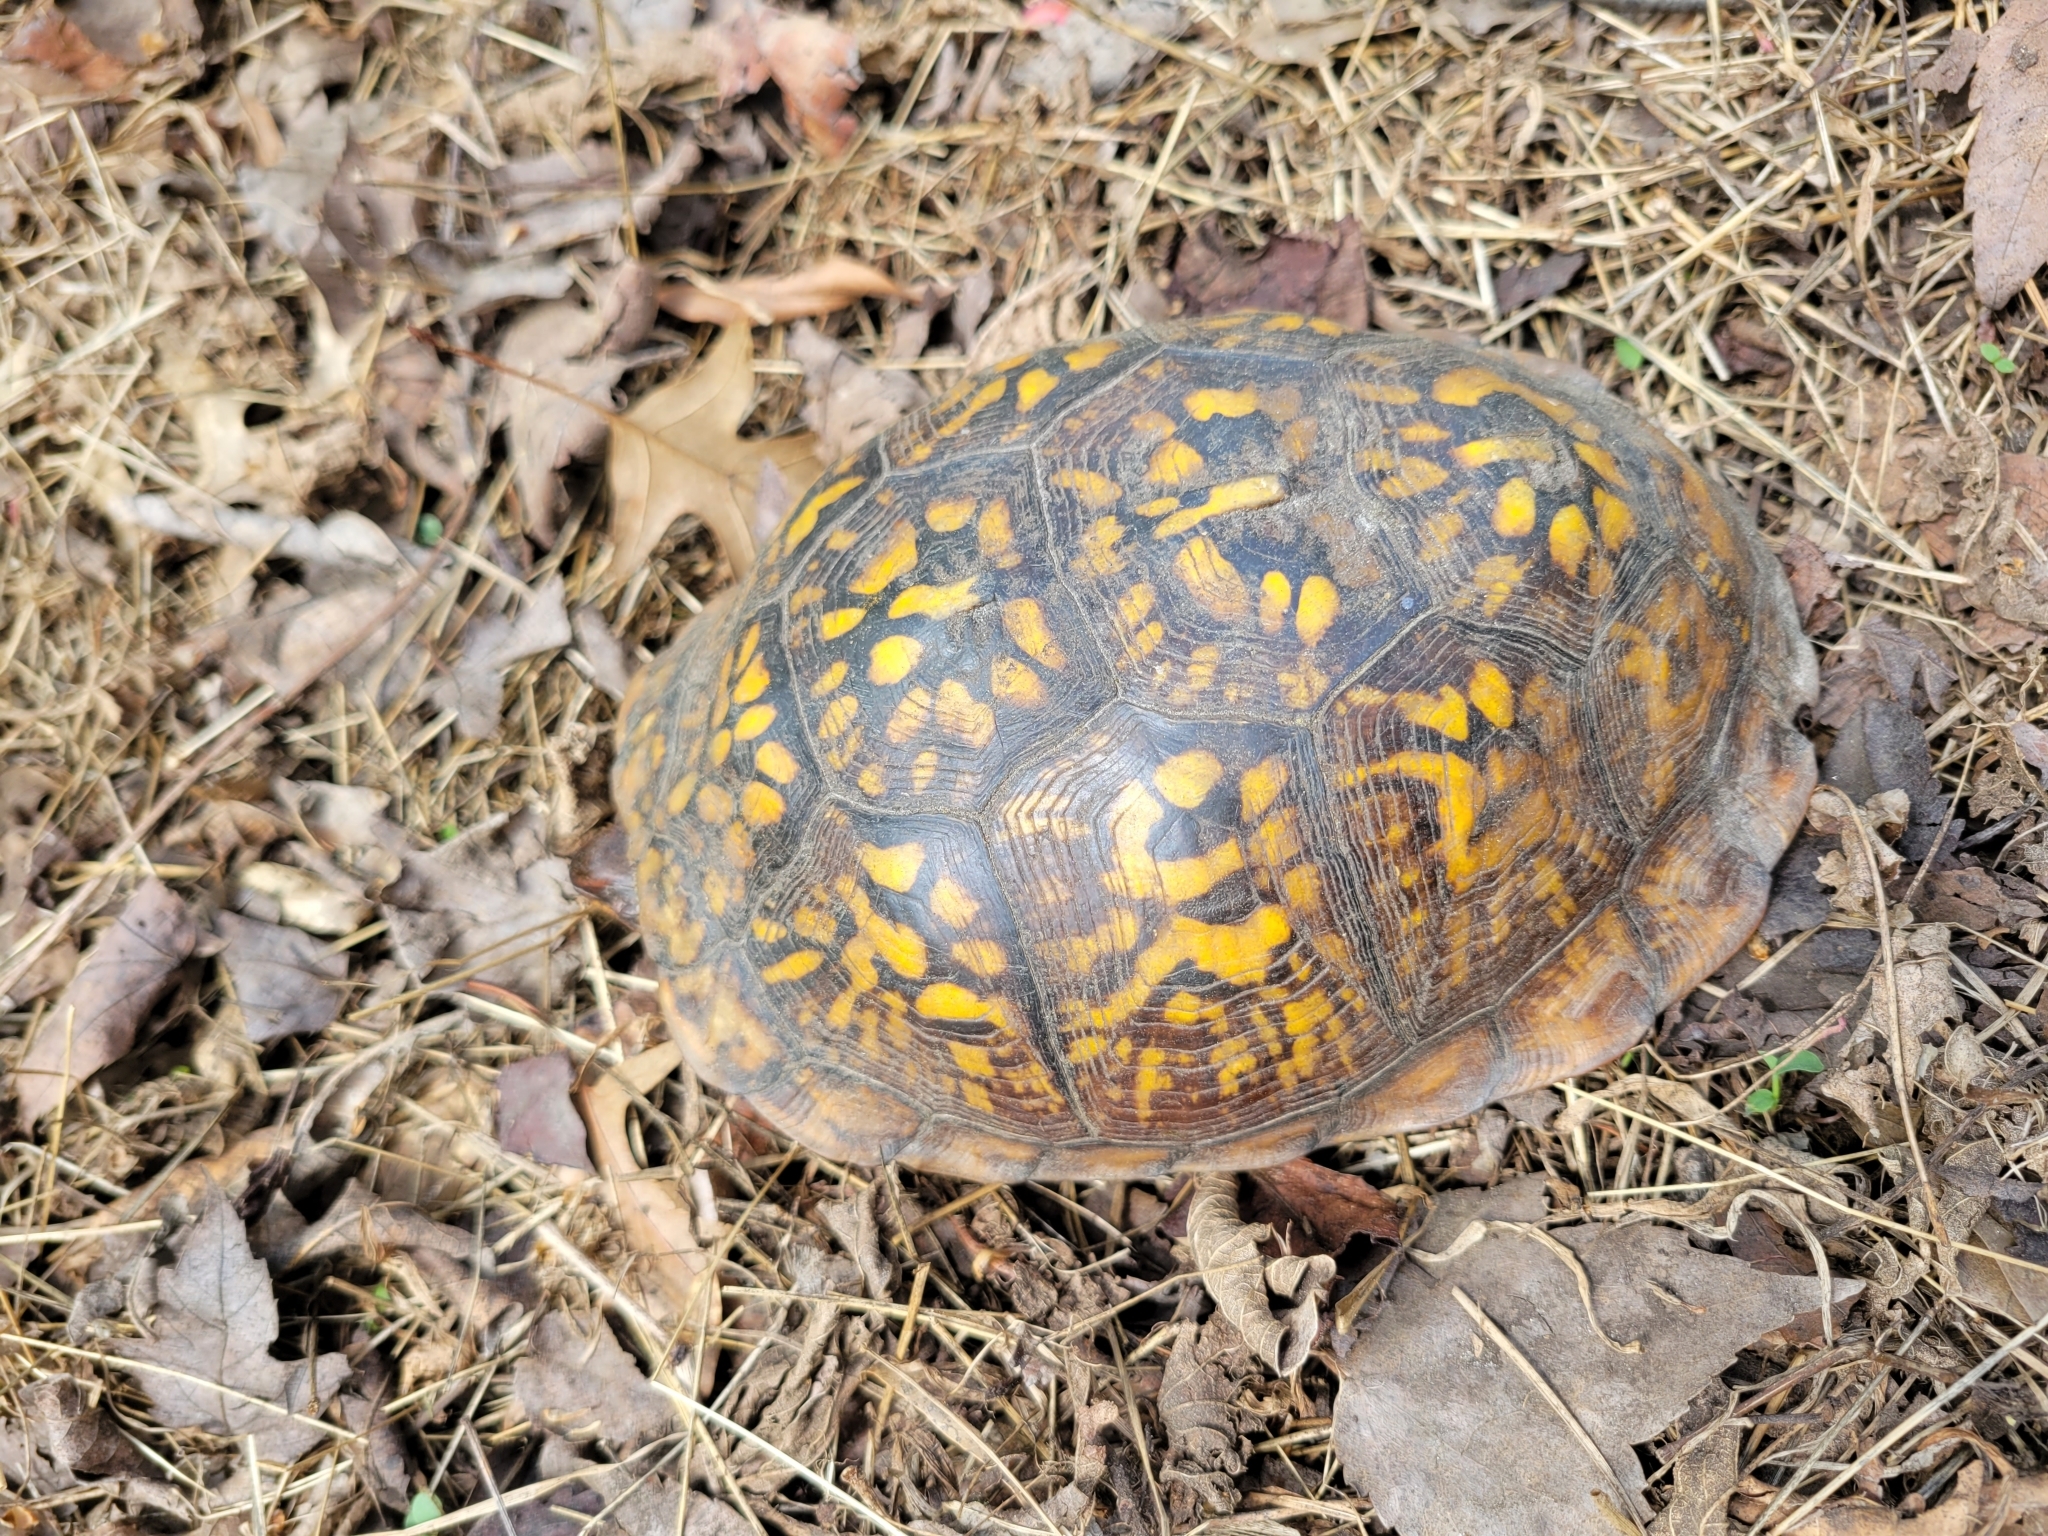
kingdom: Animalia
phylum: Chordata
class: Testudines
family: Emydidae
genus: Terrapene
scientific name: Terrapene carolina
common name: Common box turtle
